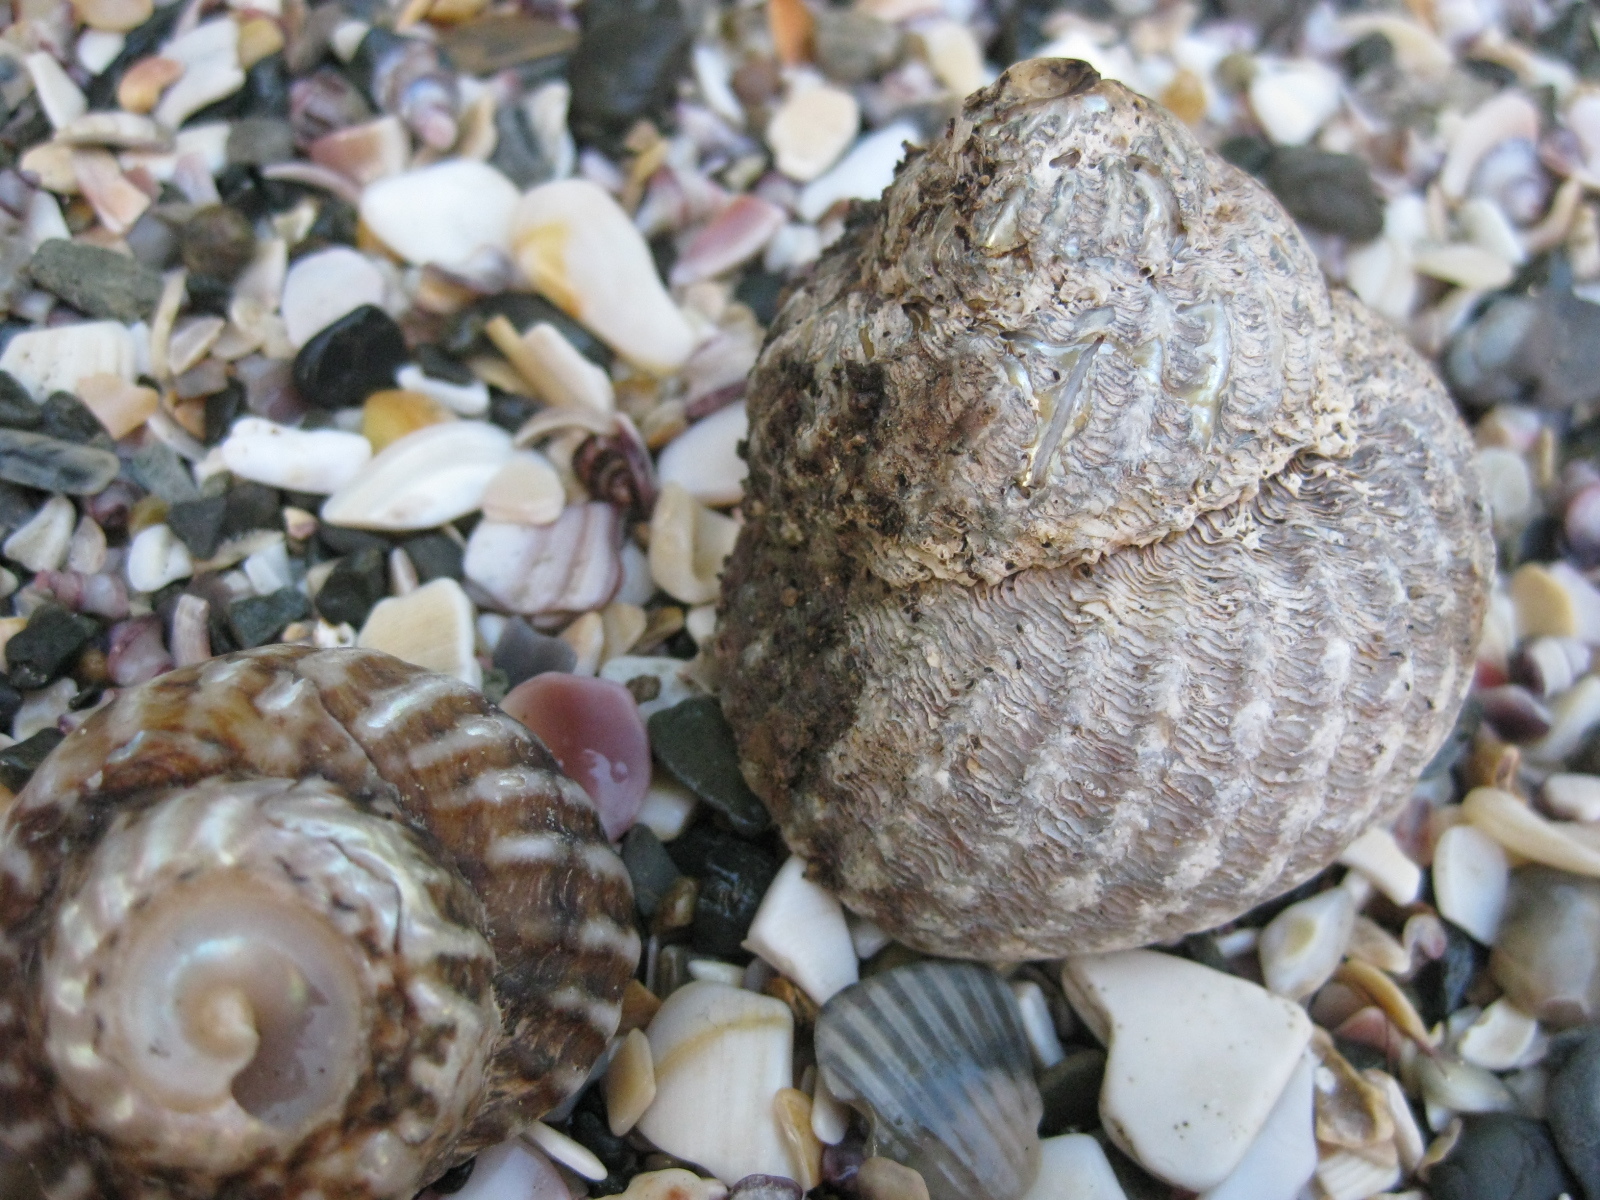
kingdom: Animalia
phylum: Mollusca
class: Gastropoda
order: Trochida
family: Turbinidae
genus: Cookia
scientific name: Cookia sulcata
